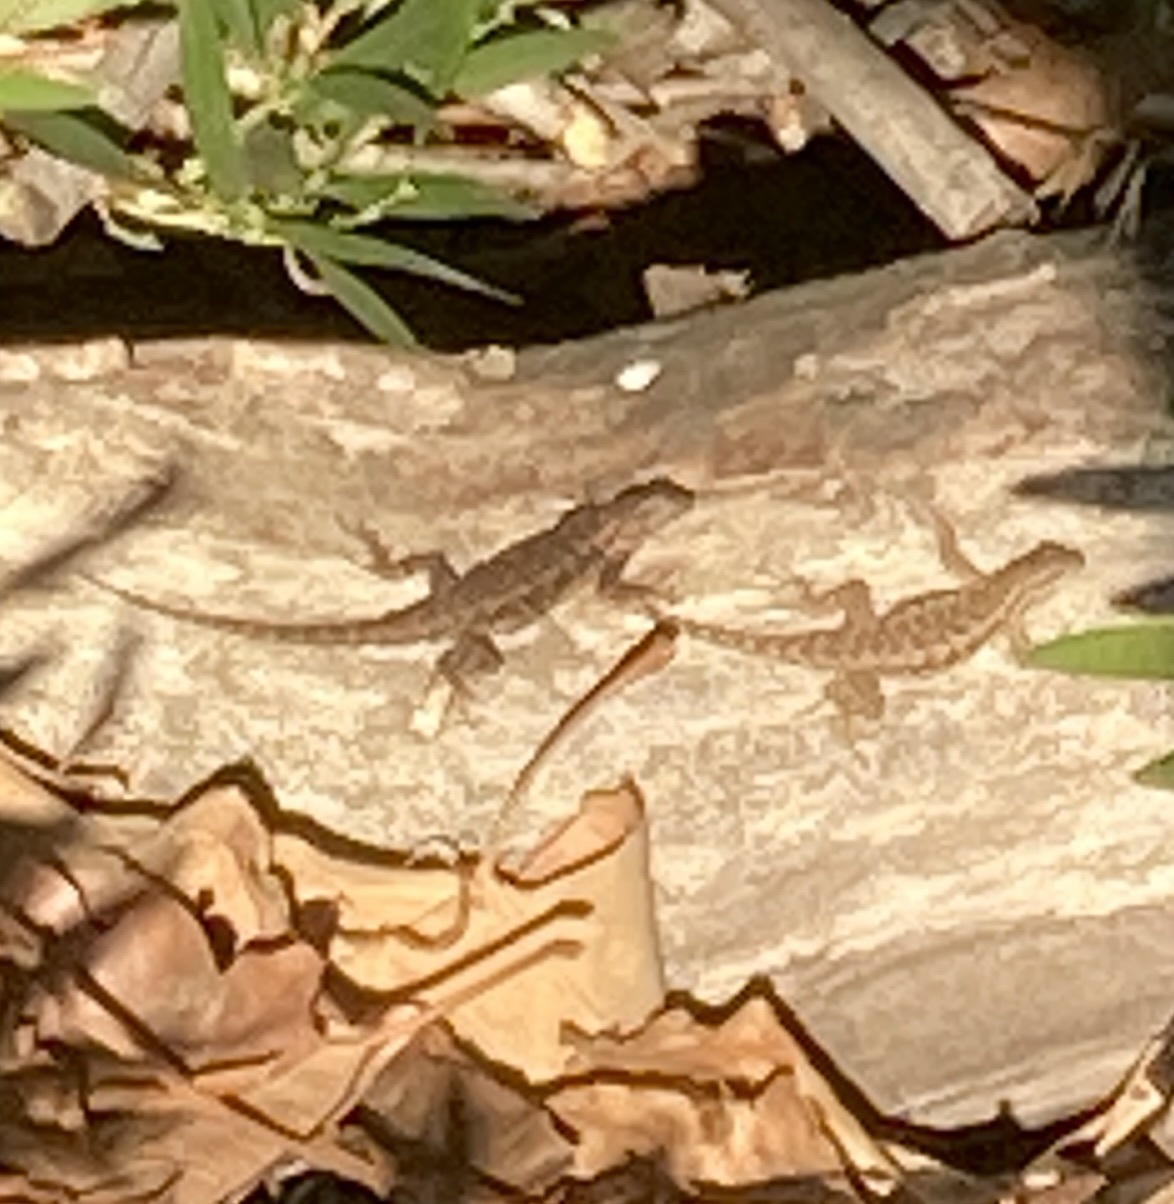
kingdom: Animalia
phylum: Chordata
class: Squamata
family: Phrynosomatidae
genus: Sceloporus
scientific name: Sceloporus occidentalis
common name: Western fence lizard
